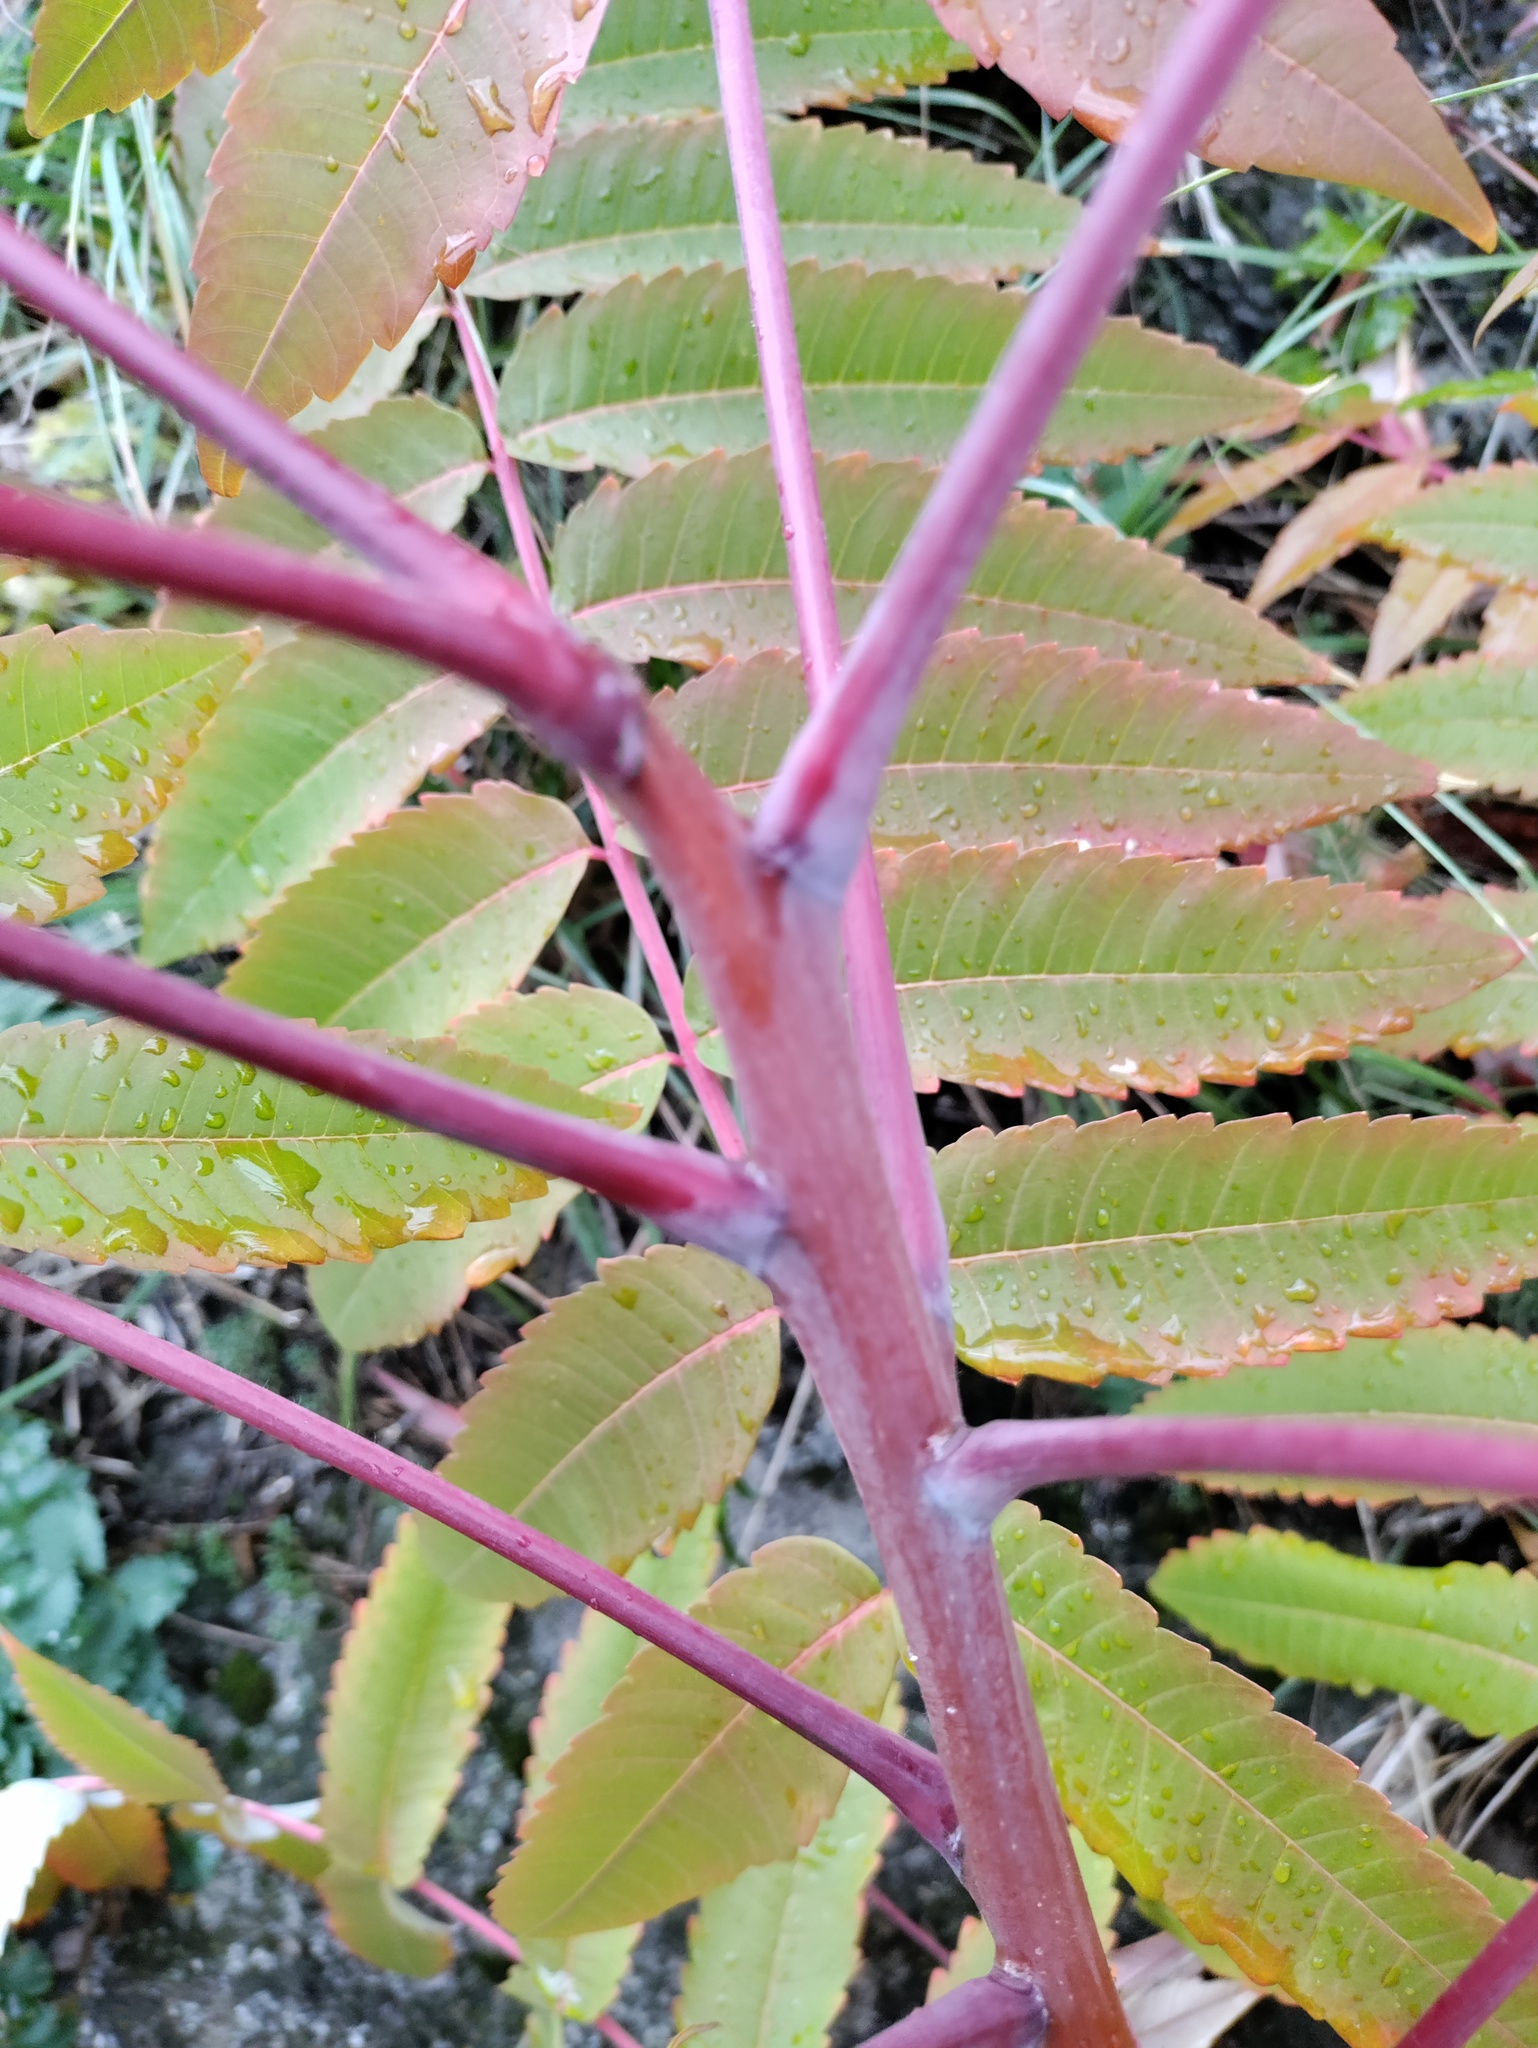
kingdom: Plantae
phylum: Tracheophyta
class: Magnoliopsida
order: Sapindales
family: Anacardiaceae
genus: Rhus
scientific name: Rhus typhina
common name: Staghorn sumac
